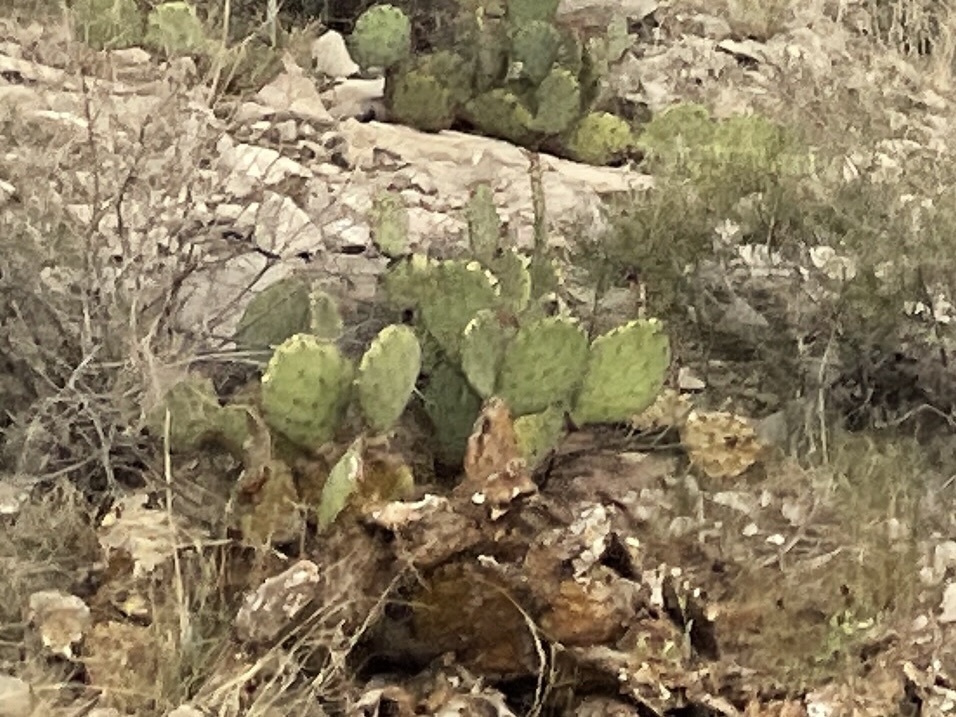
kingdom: Plantae
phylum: Tracheophyta
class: Magnoliopsida
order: Caryophyllales
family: Cactaceae
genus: Opuntia
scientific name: Opuntia engelmannii
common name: Cactus-apple
